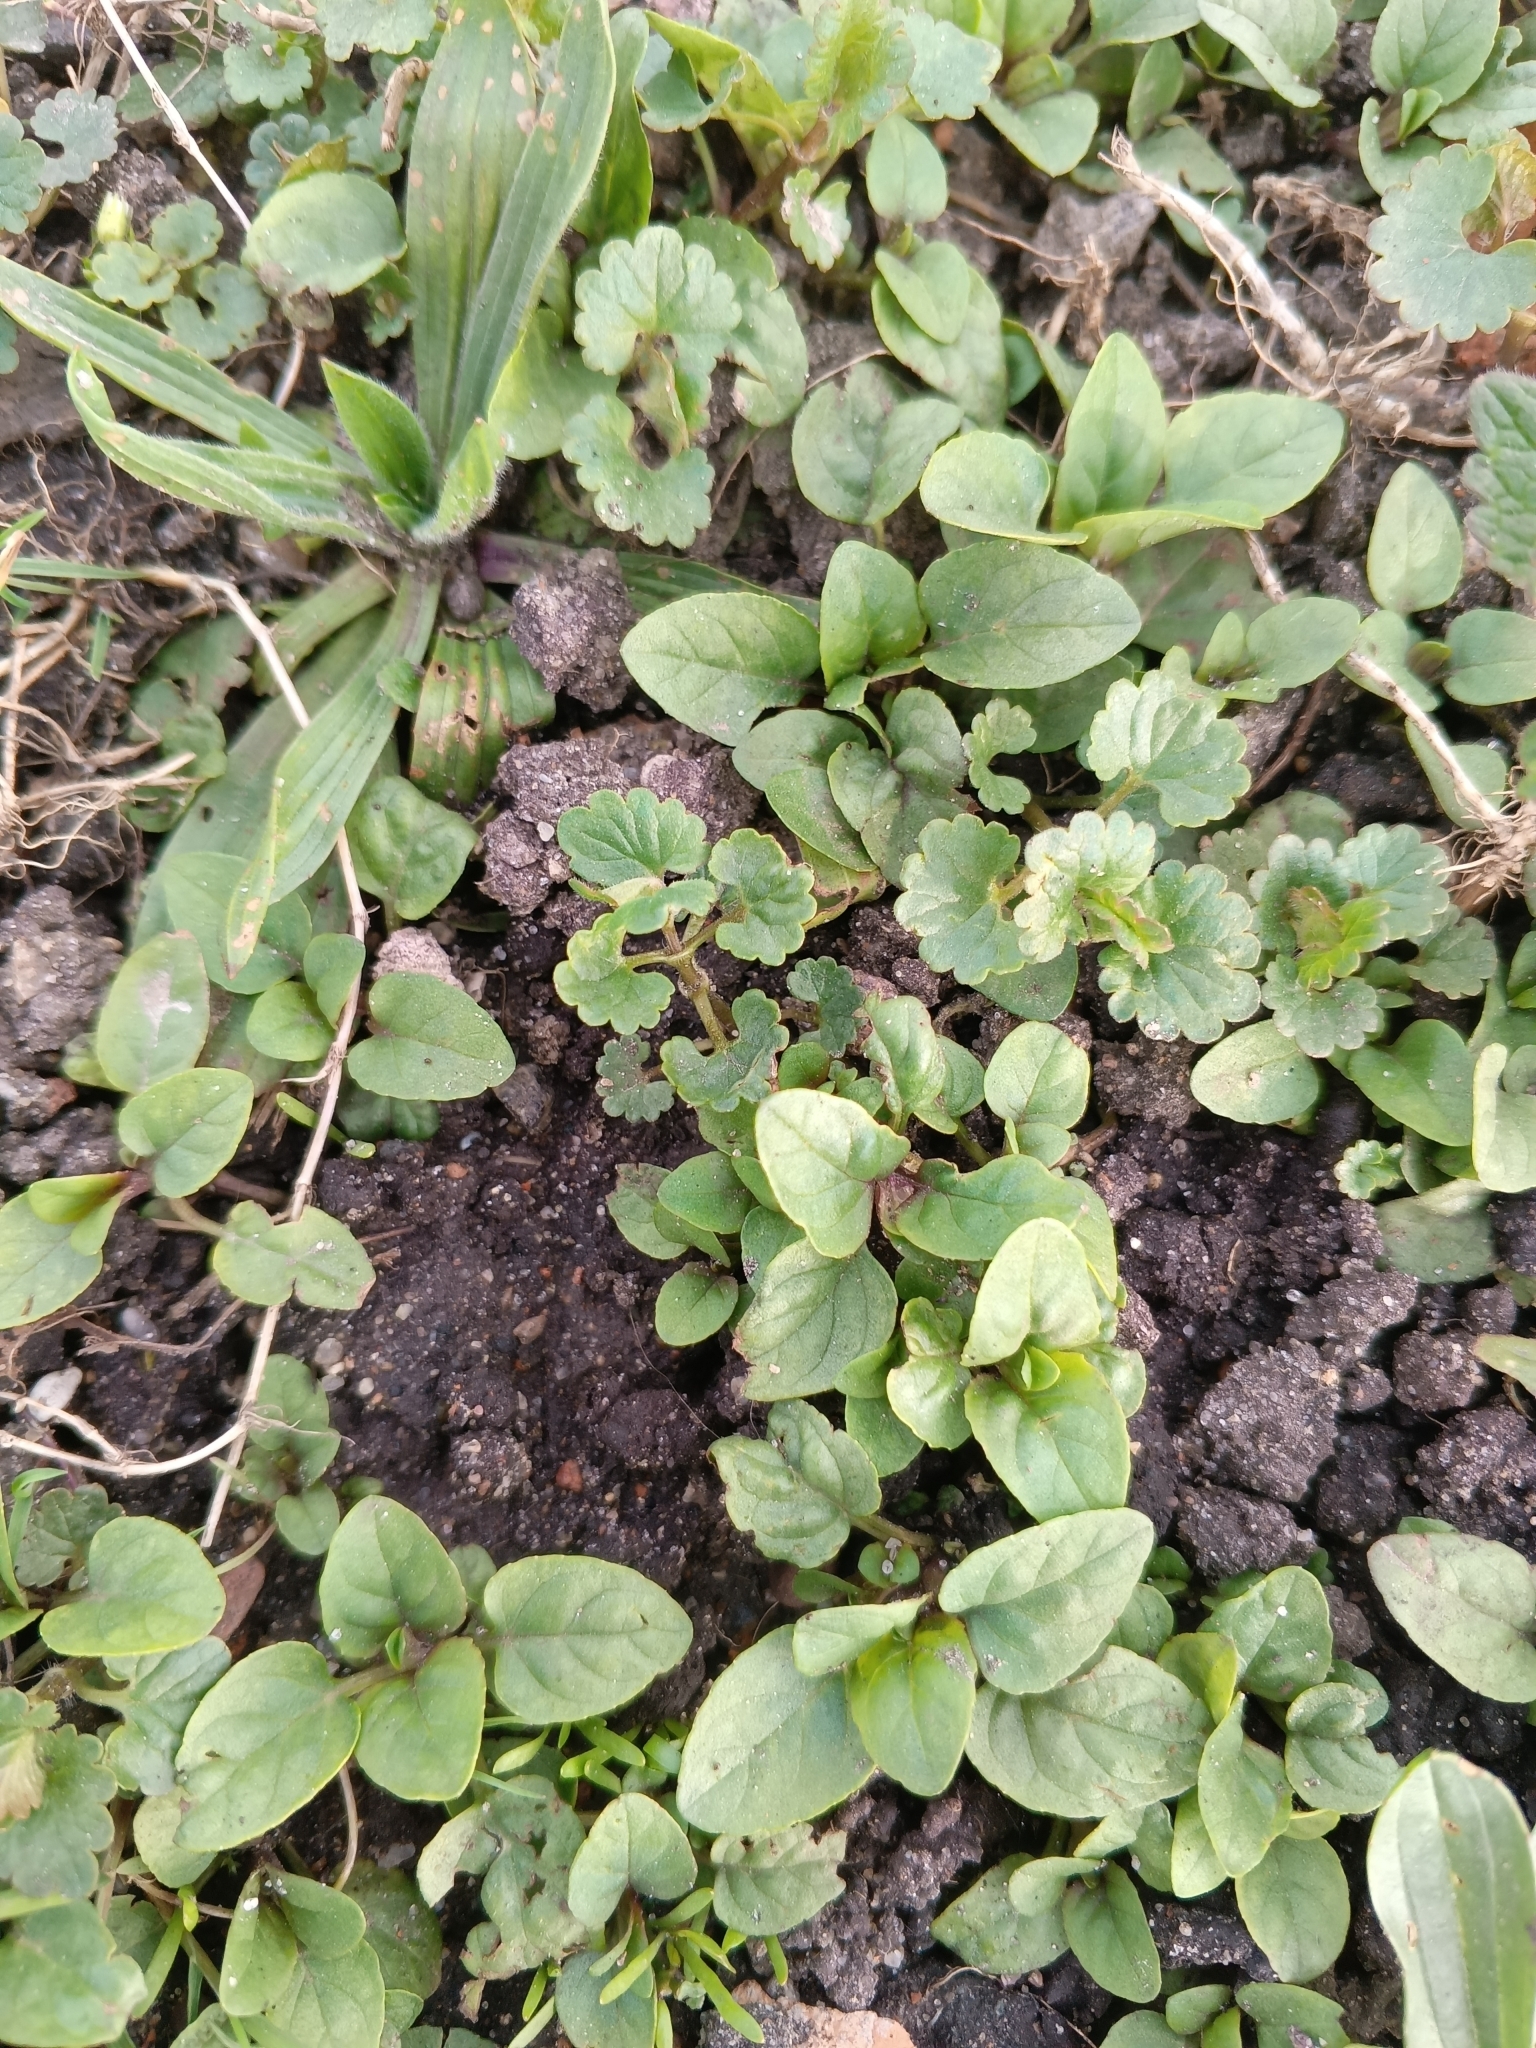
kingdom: Plantae
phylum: Tracheophyta
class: Magnoliopsida
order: Lamiales
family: Lamiaceae
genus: Prunella
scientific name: Prunella vulgaris
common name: Heal-all
